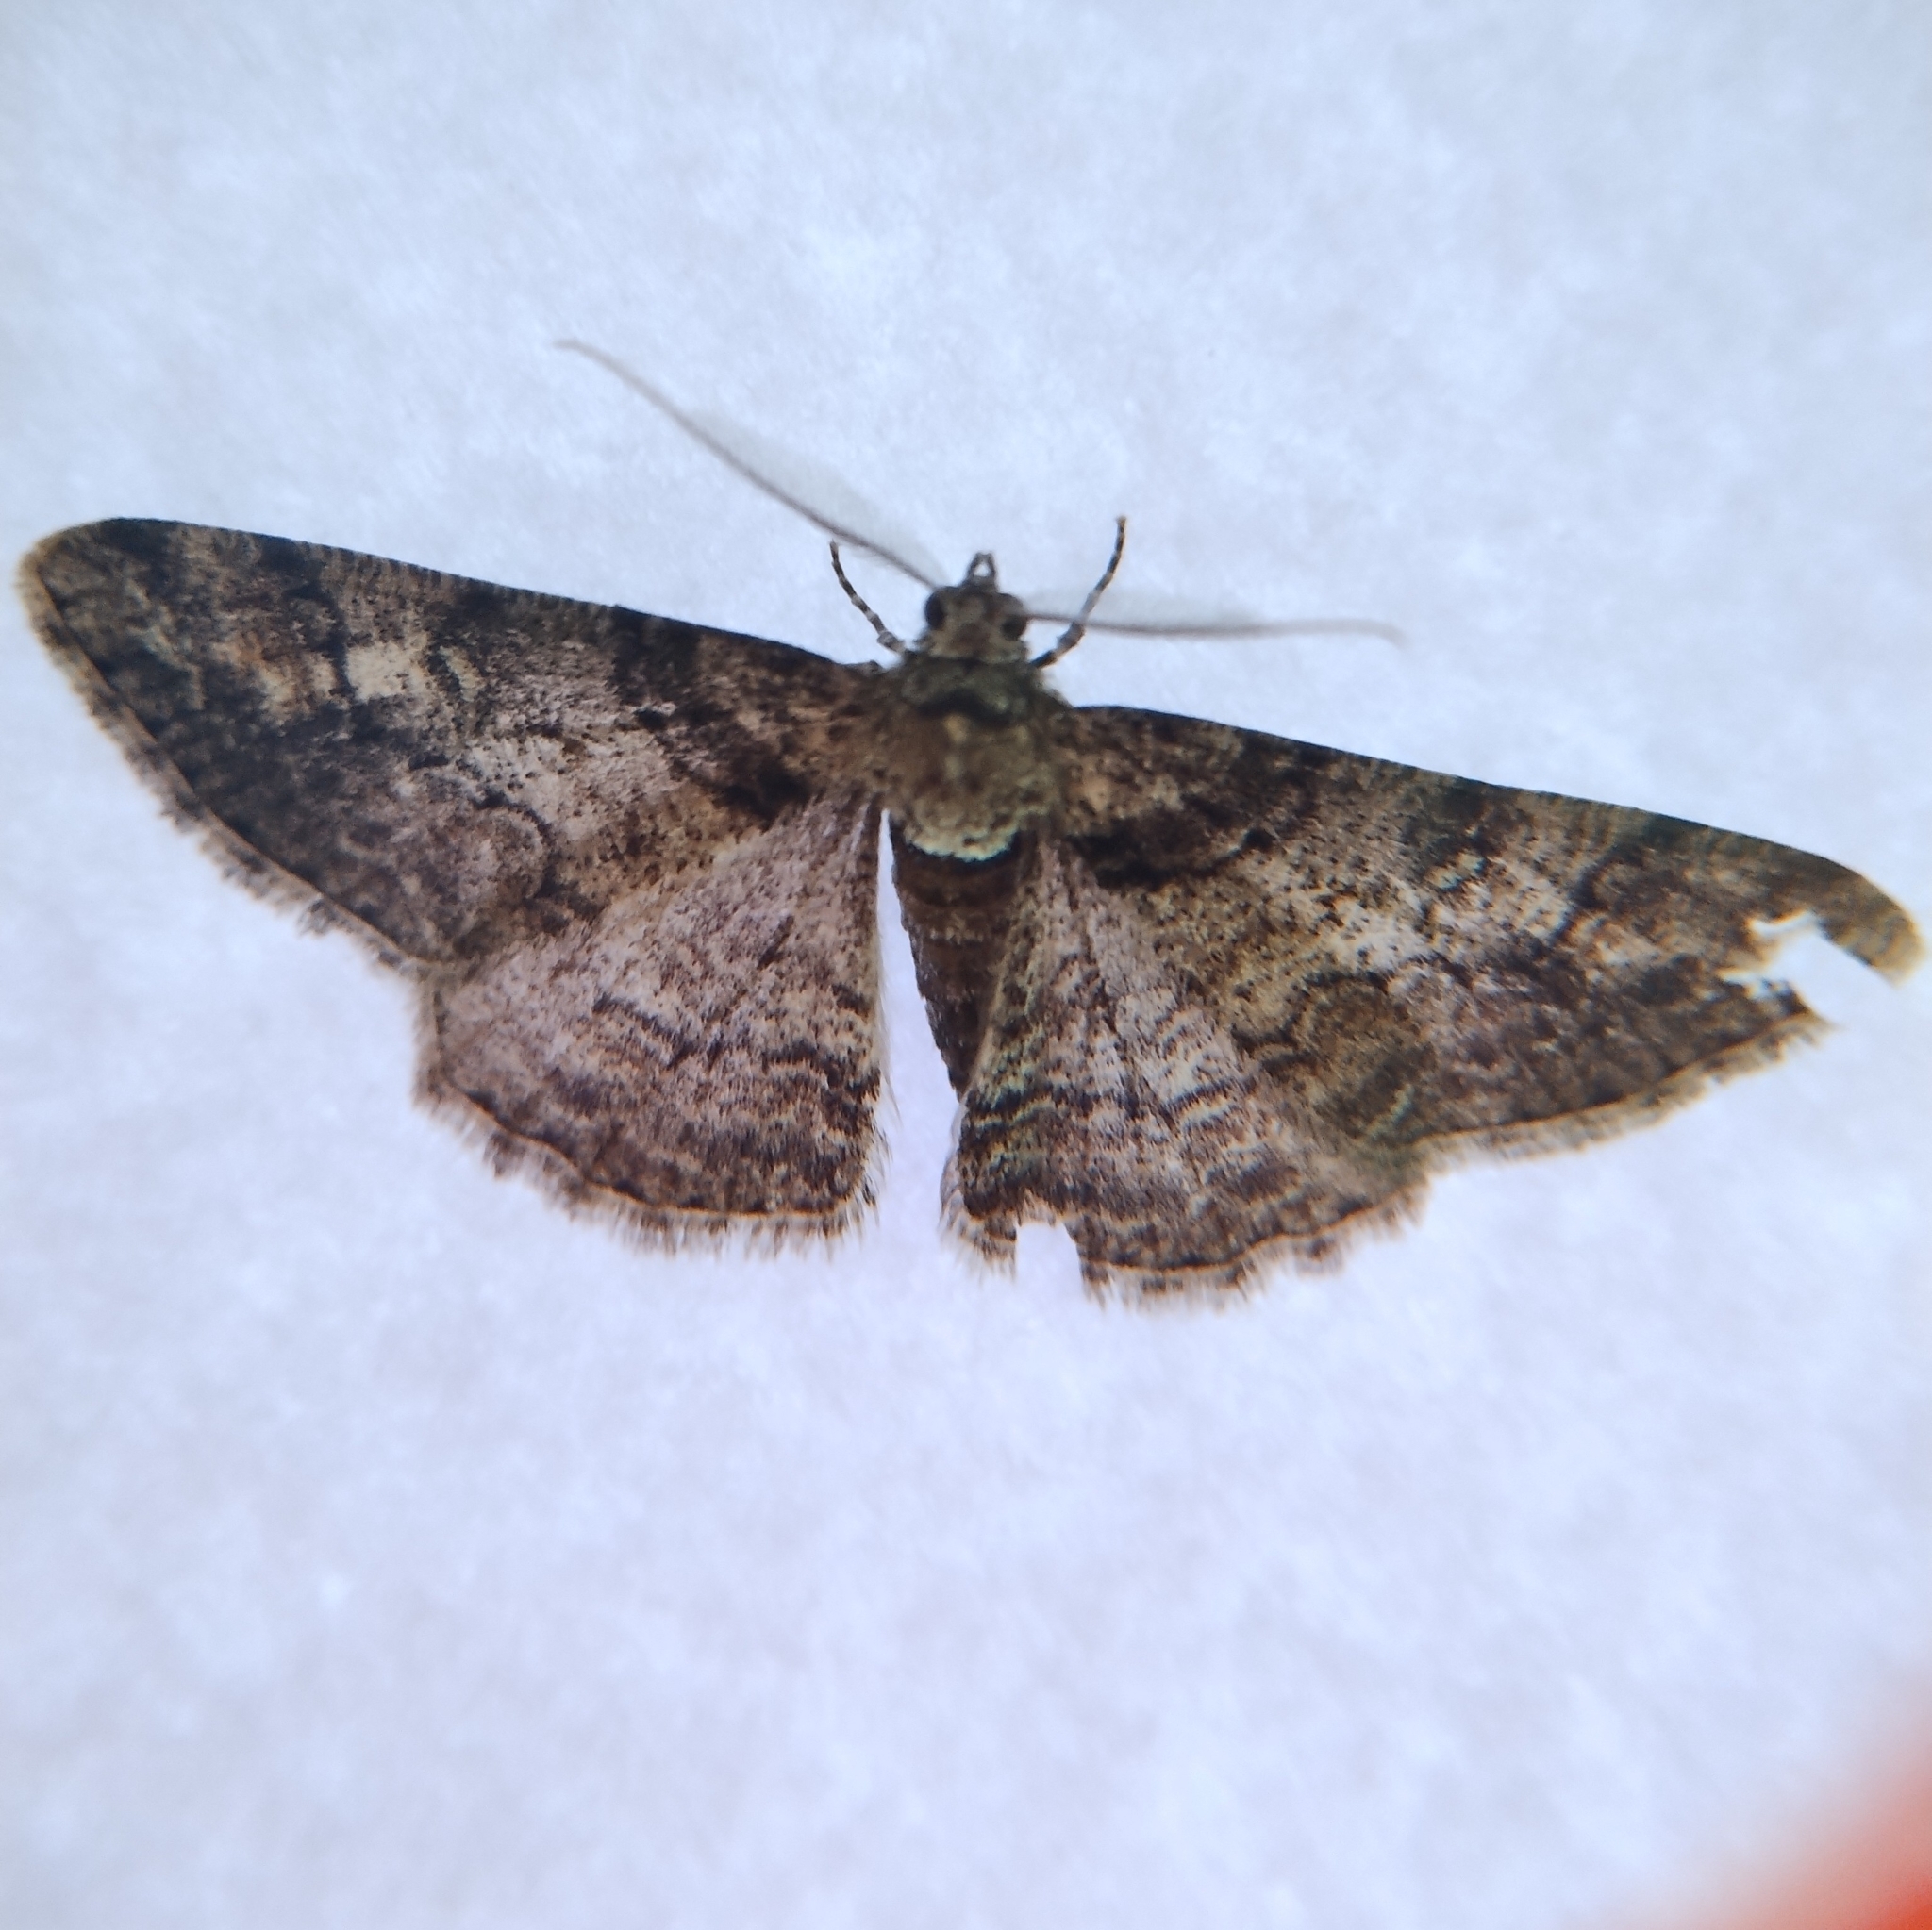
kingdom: Animalia
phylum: Arthropoda
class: Insecta
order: Lepidoptera
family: Geometridae
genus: Cleora
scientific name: Cleora cinctaria
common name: Ringed carpet
